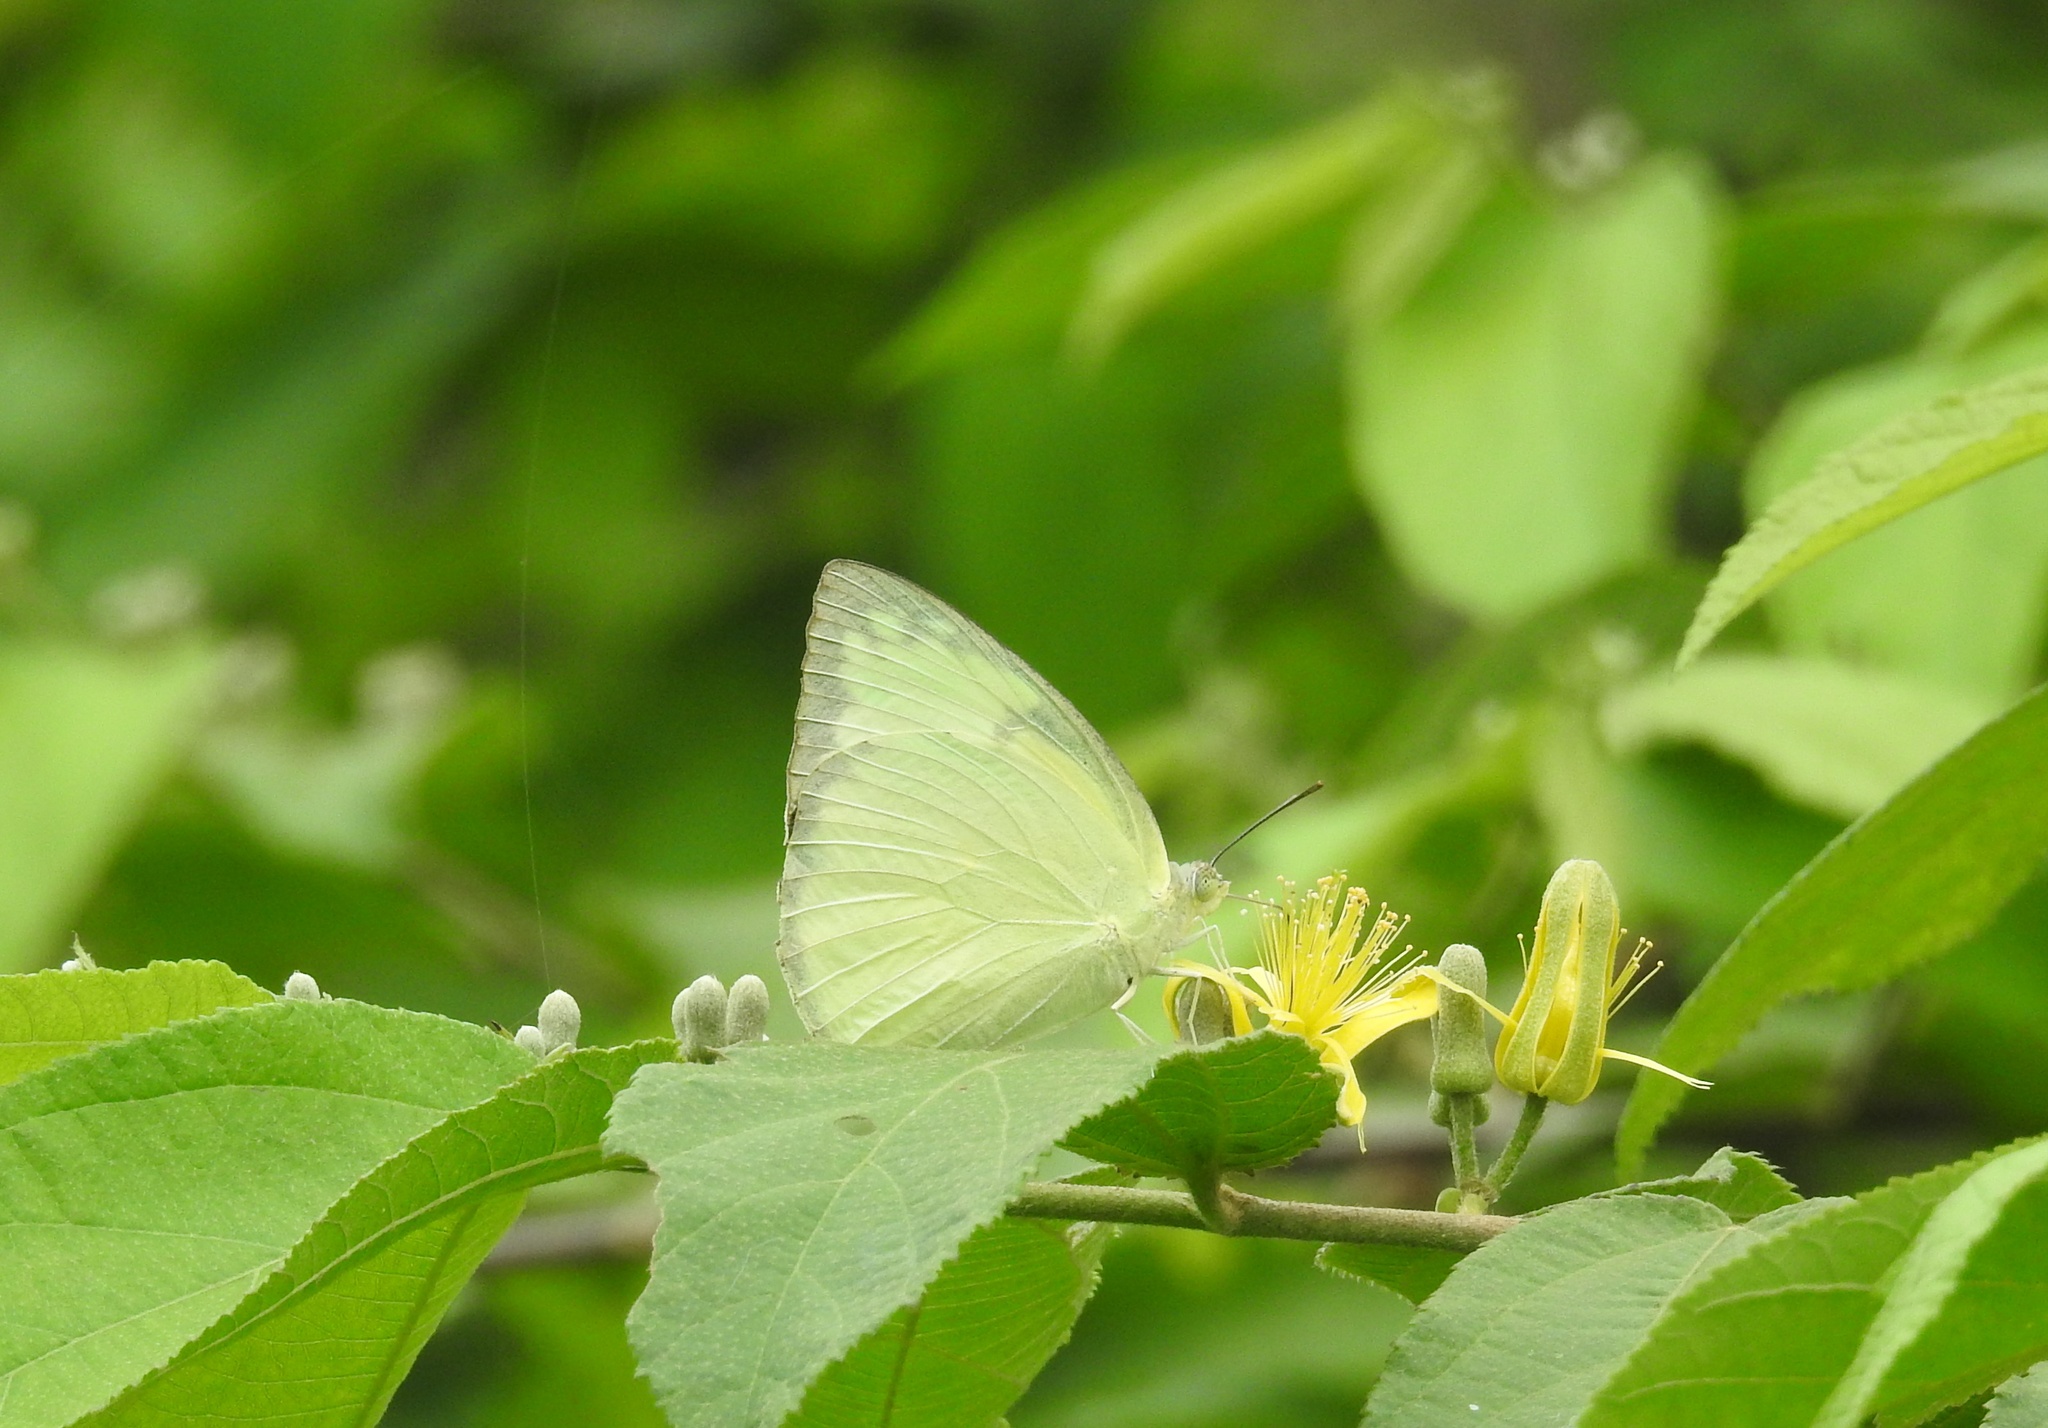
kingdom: Animalia
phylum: Arthropoda
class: Insecta
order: Lepidoptera
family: Pieridae
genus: Catopsilia
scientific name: Catopsilia pomona
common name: Common emigrant
